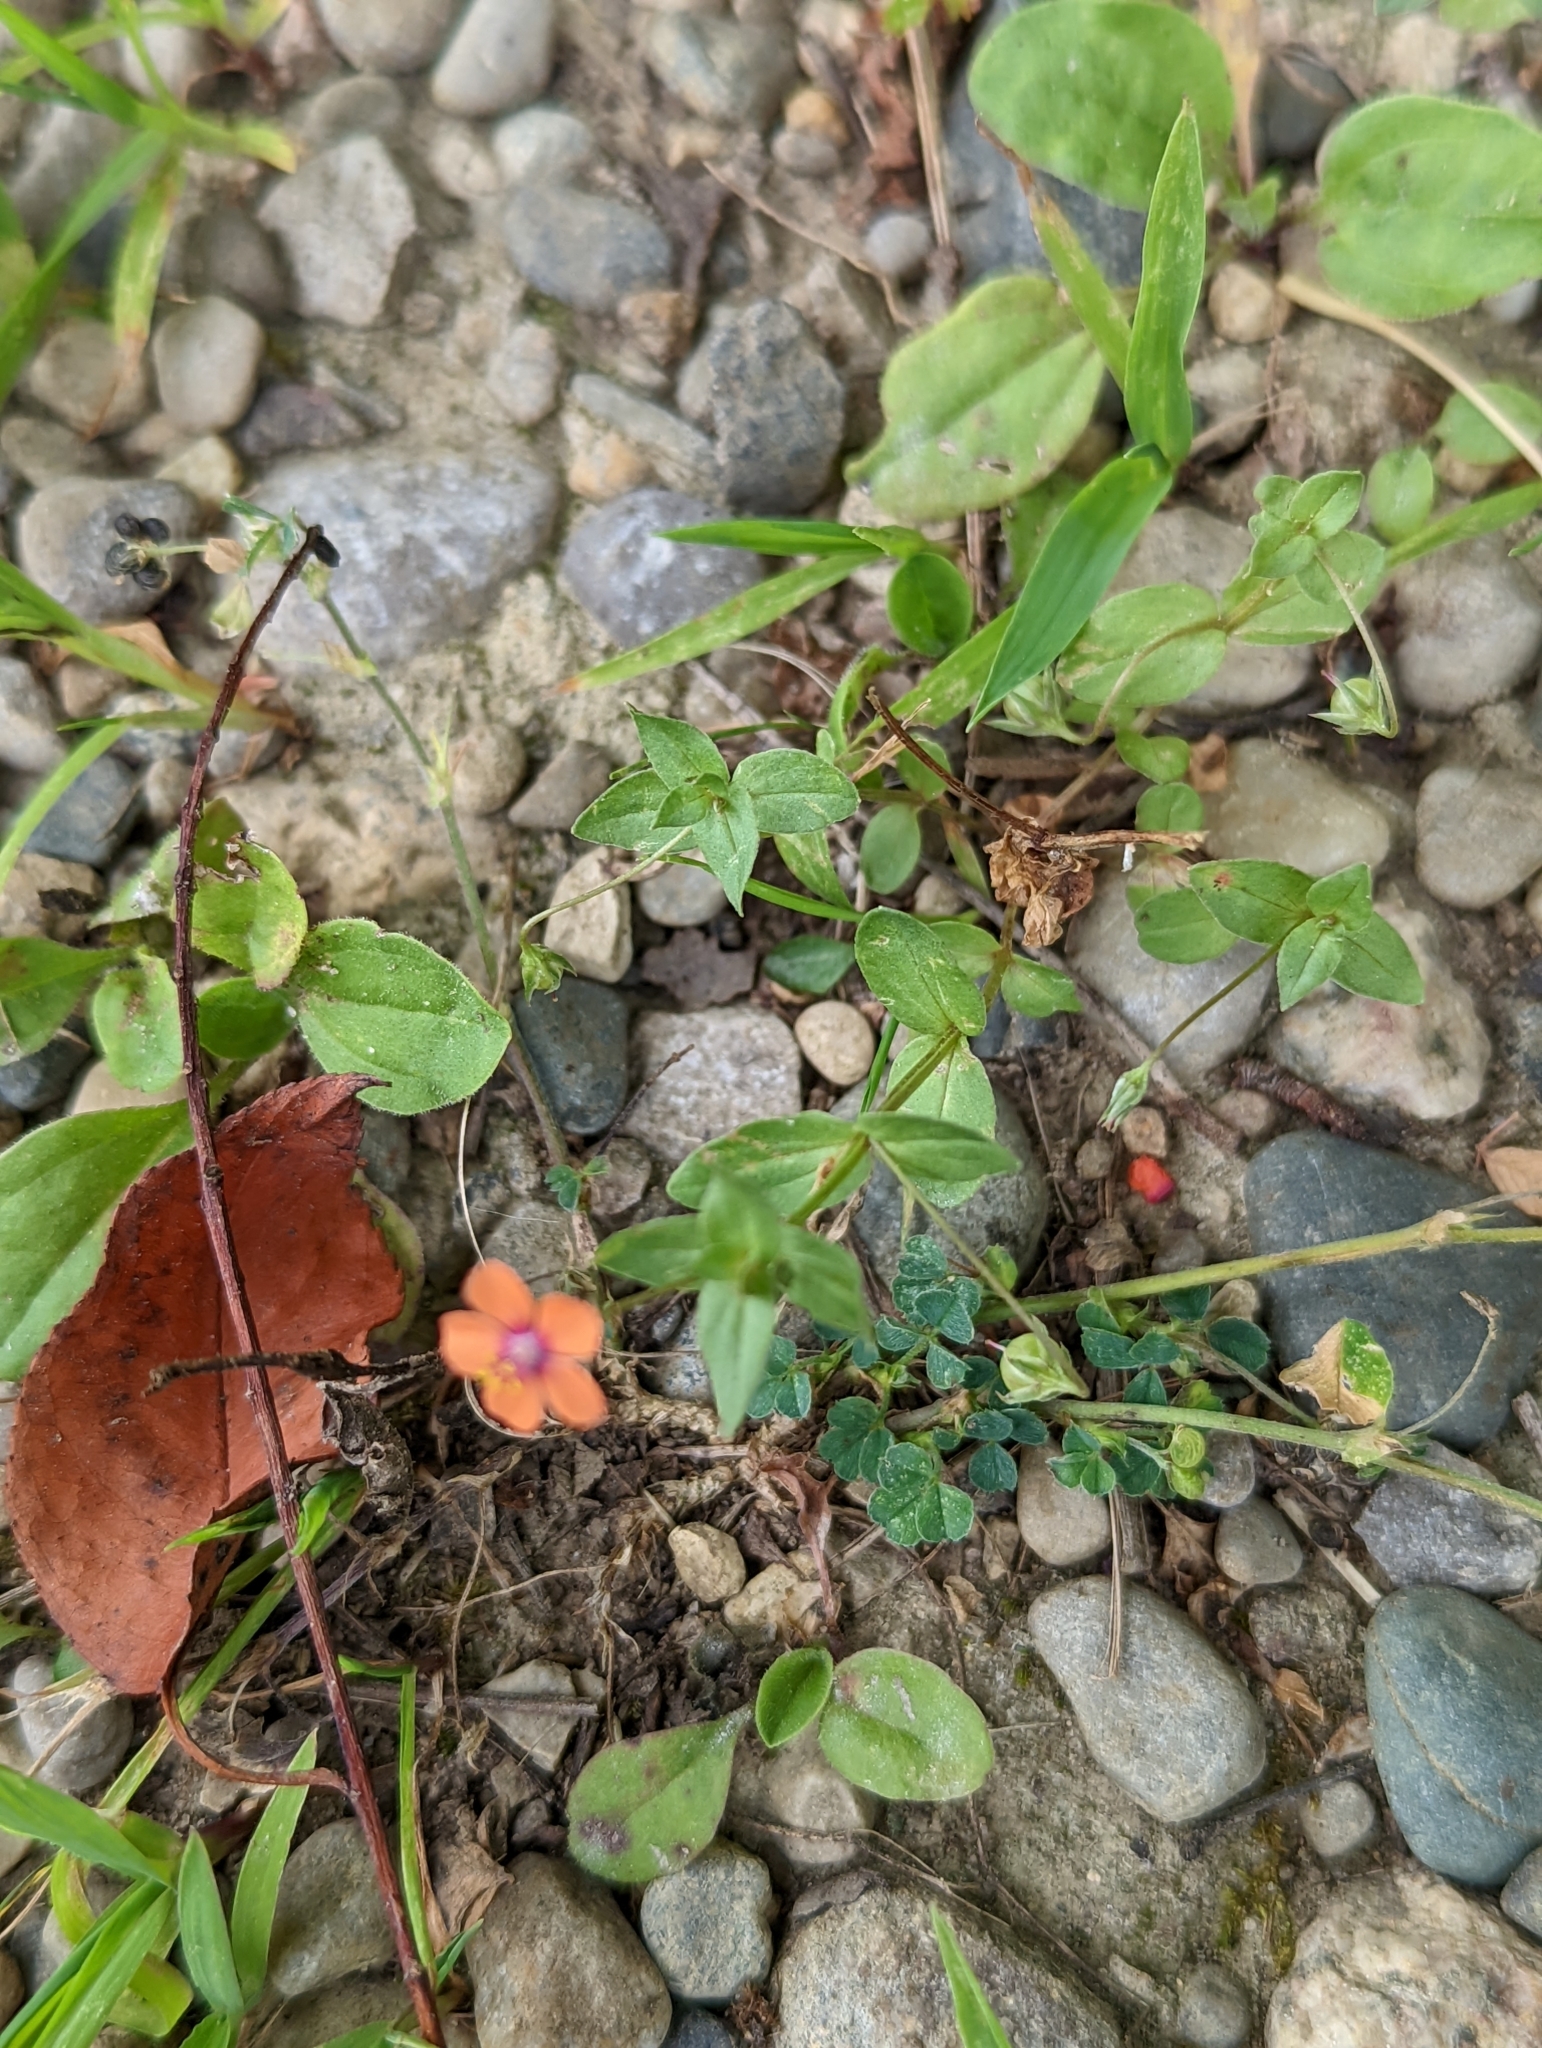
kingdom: Plantae
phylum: Tracheophyta
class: Magnoliopsida
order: Ericales
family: Primulaceae
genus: Lysimachia
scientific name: Lysimachia arvensis
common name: Scarlet pimpernel
